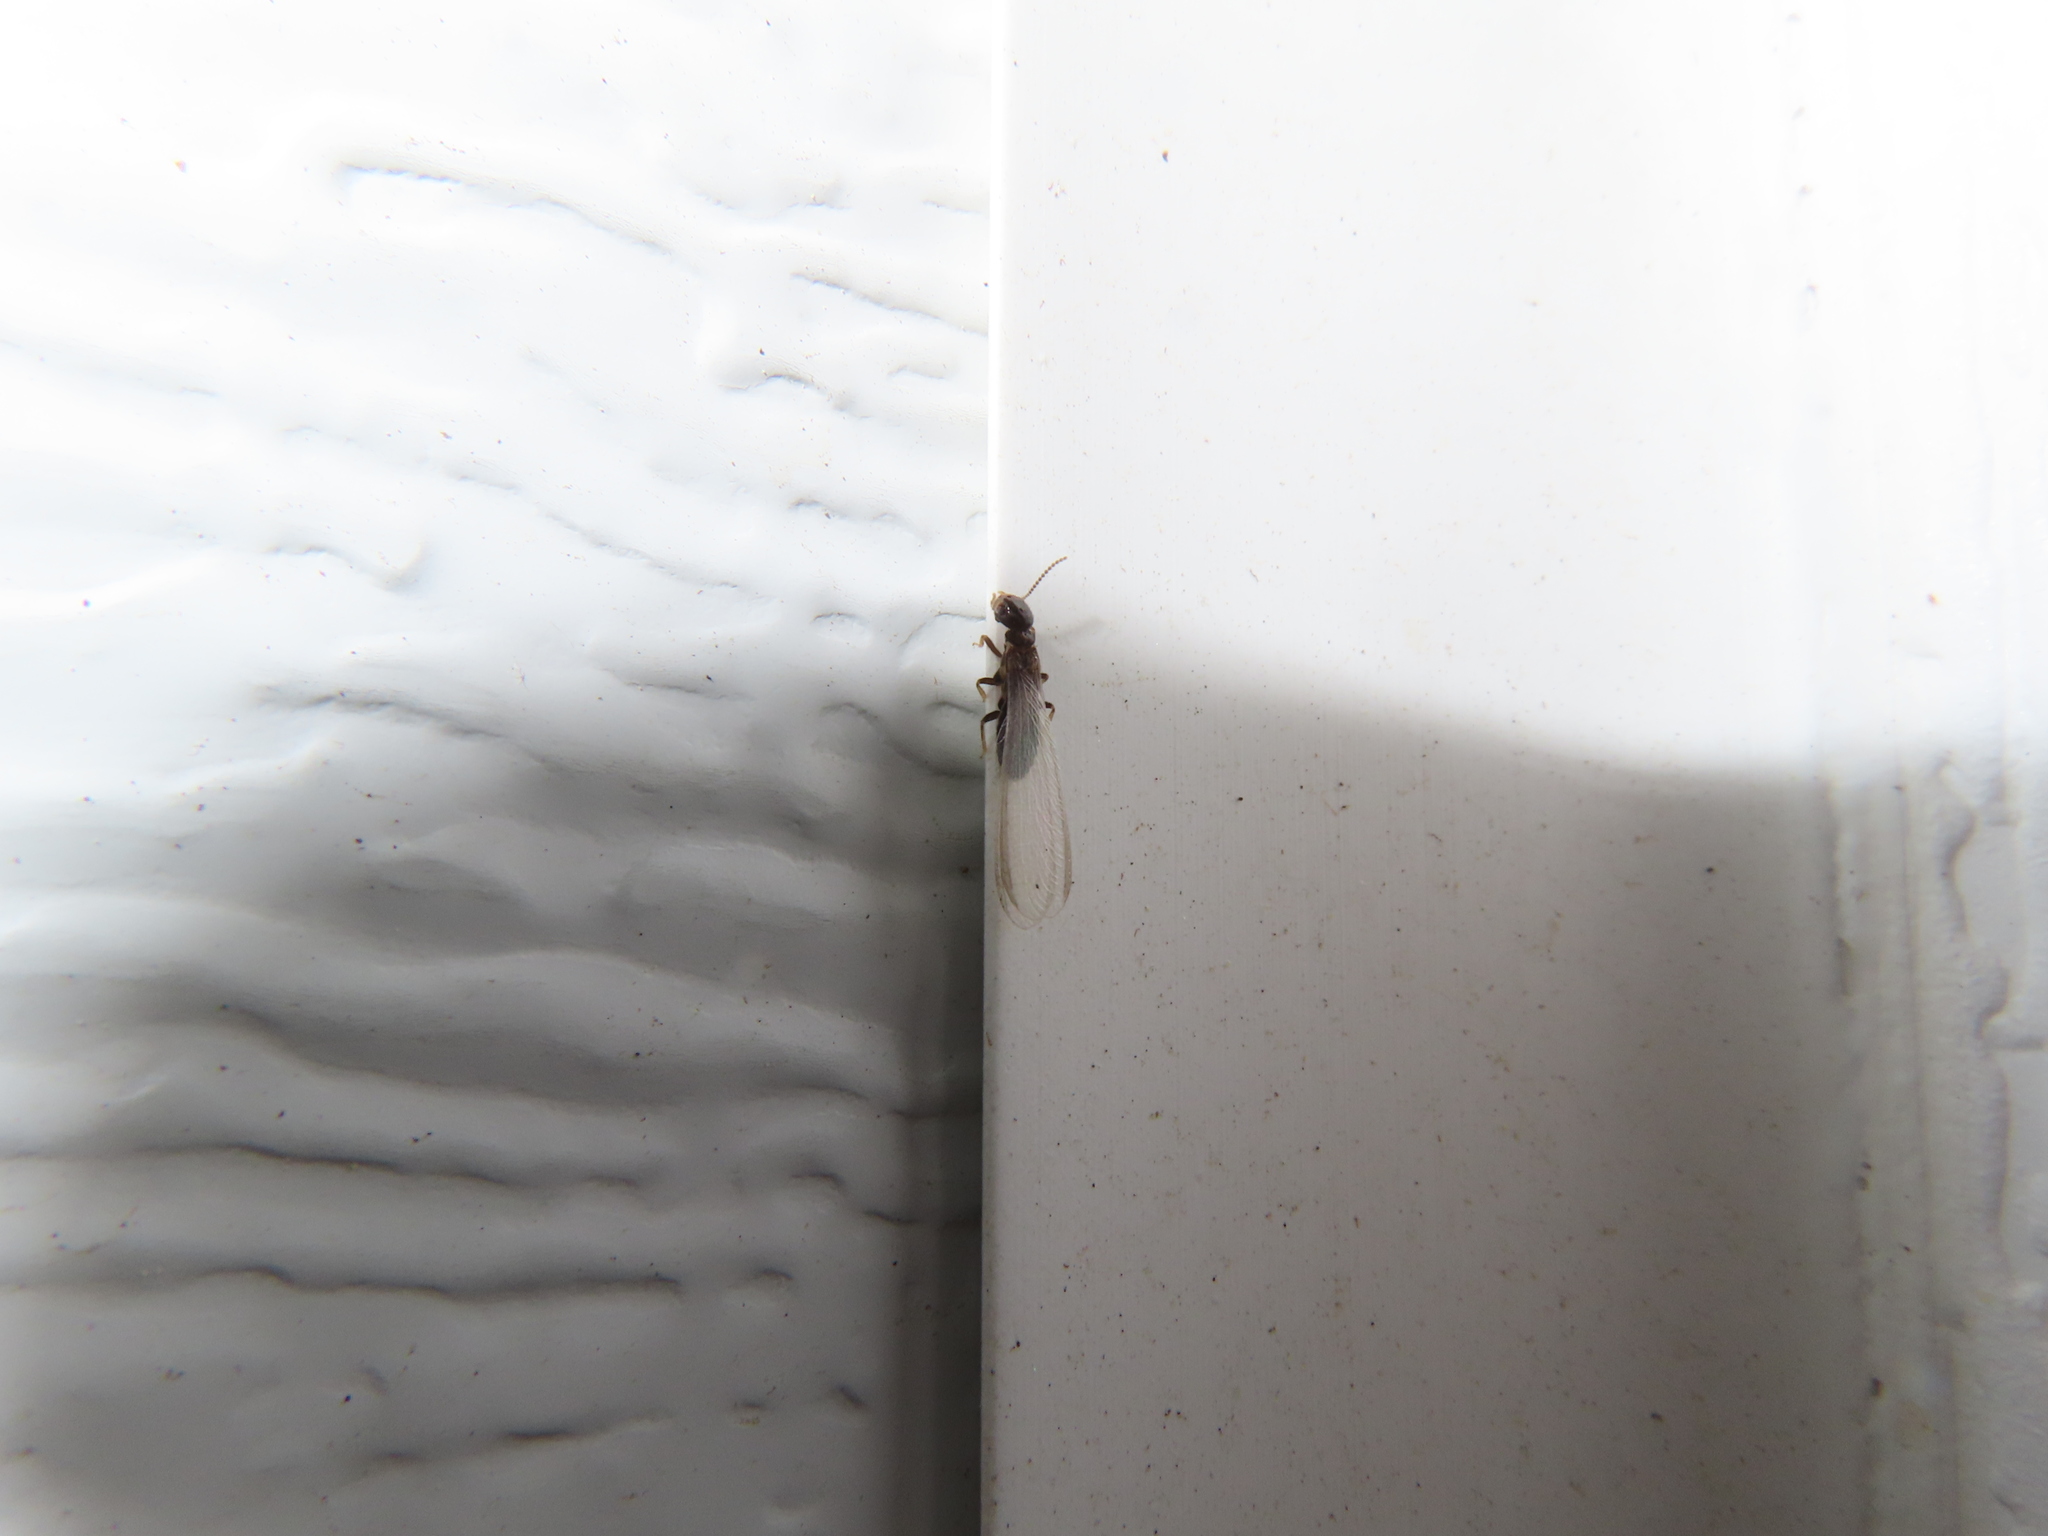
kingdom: Animalia
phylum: Arthropoda
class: Insecta
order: Blattodea
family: Rhinotermitidae
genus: Reticulitermes
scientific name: Reticulitermes flavipes
